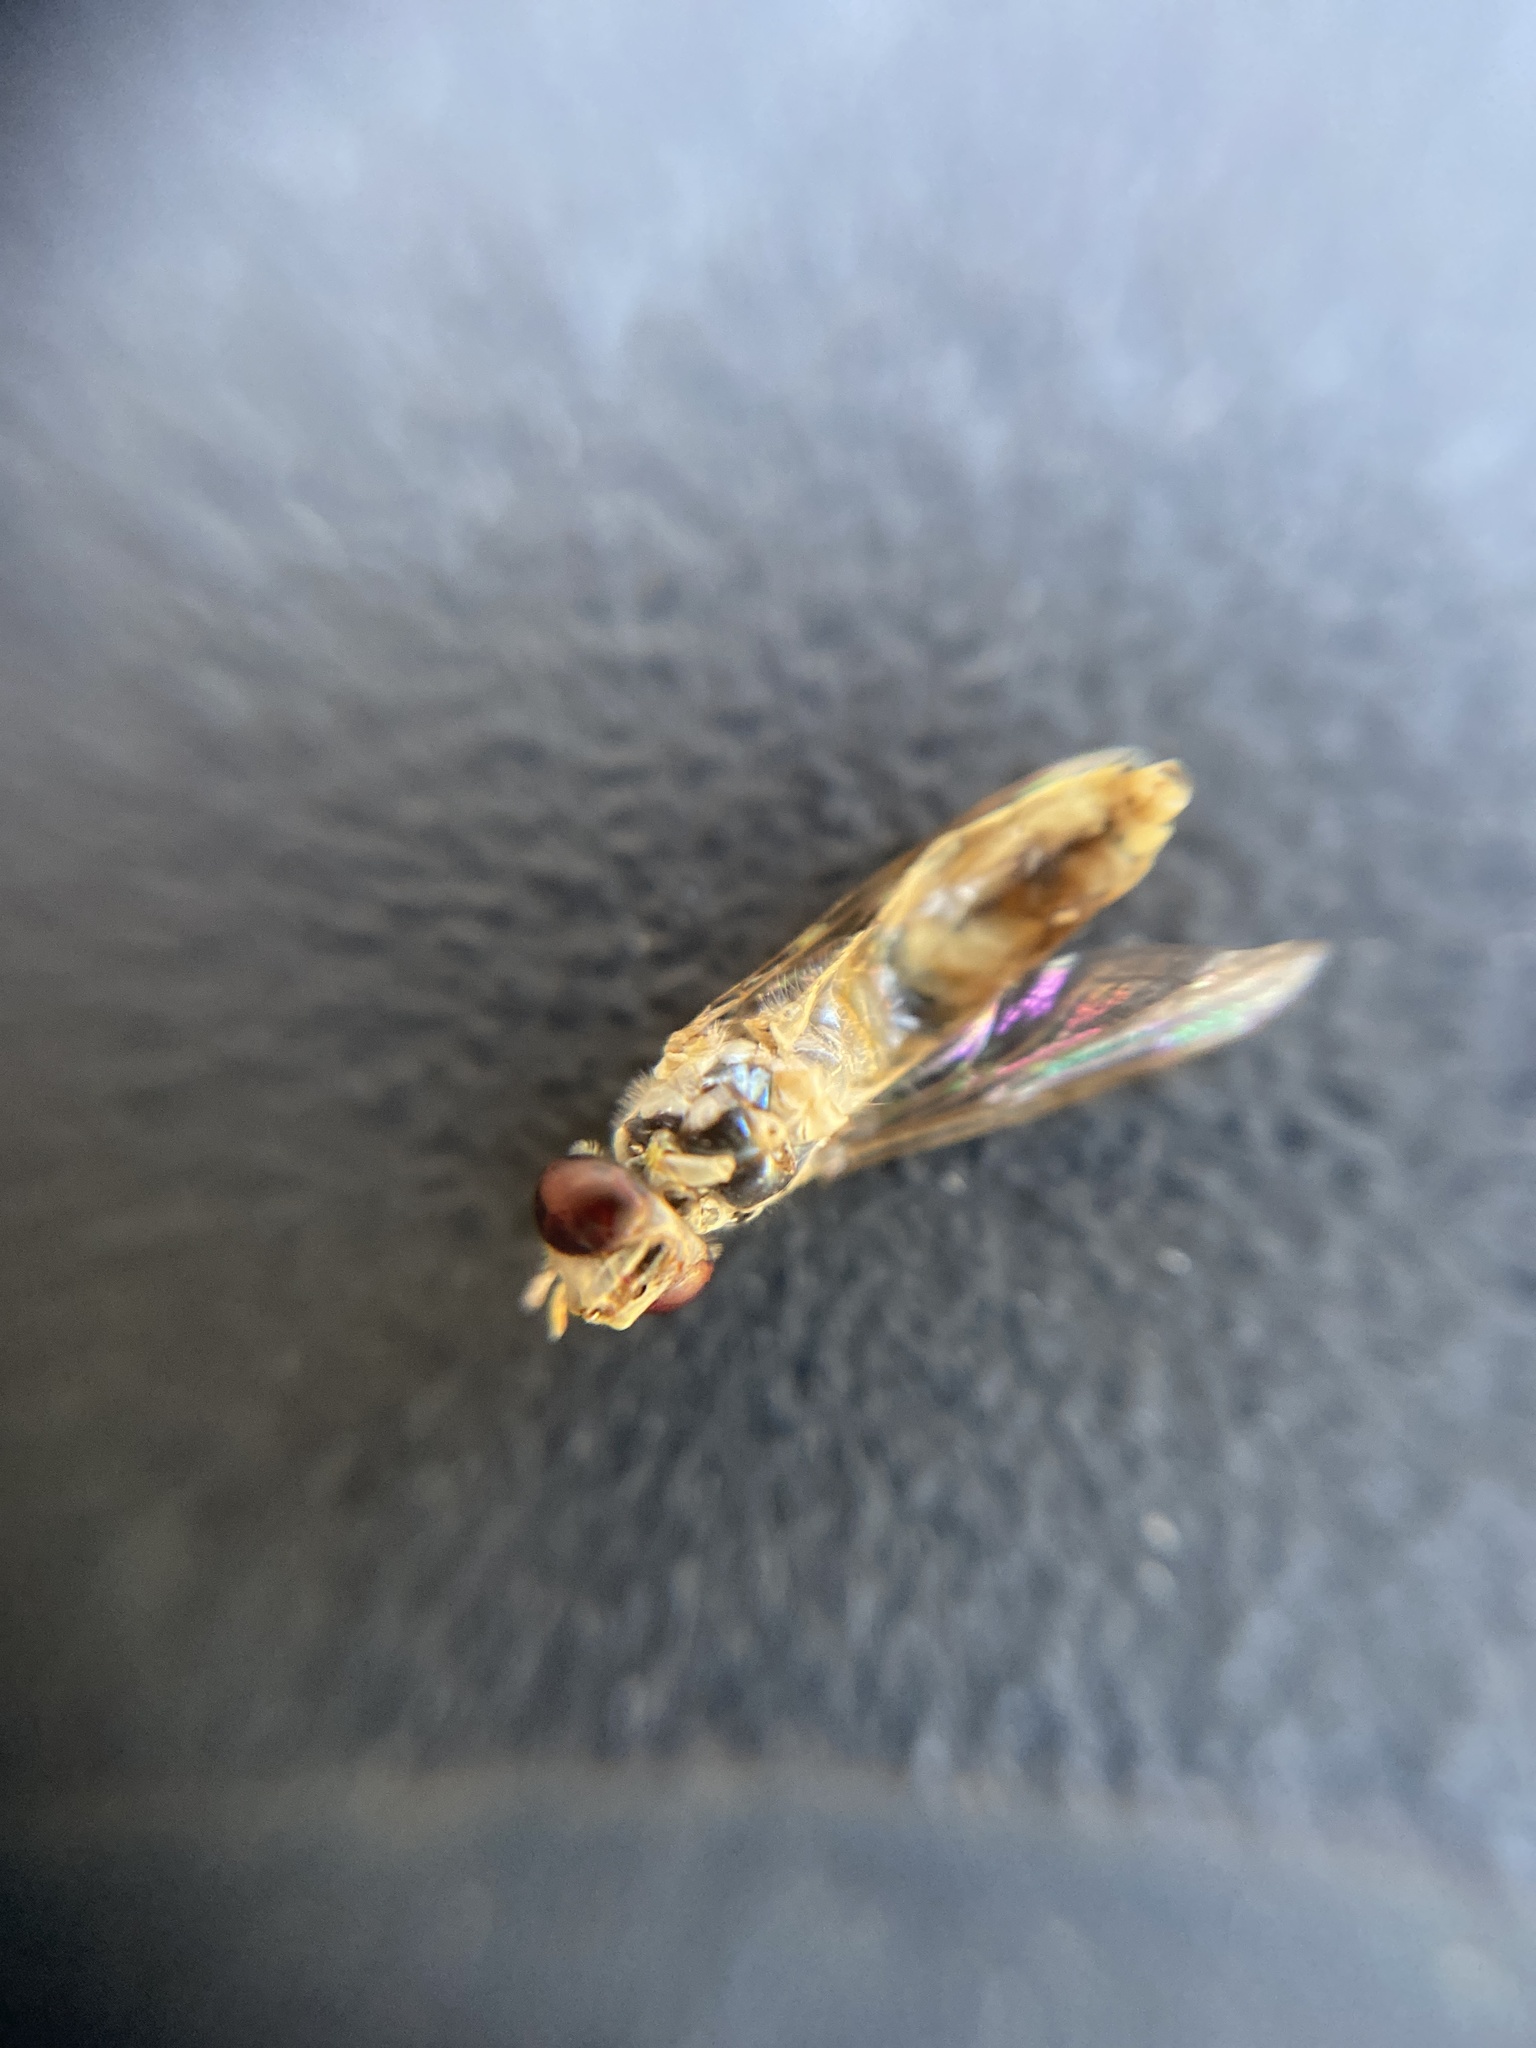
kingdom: Animalia
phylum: Arthropoda
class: Insecta
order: Diptera
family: Syrphidae
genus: Sphaerophoria
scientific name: Sphaerophoria
